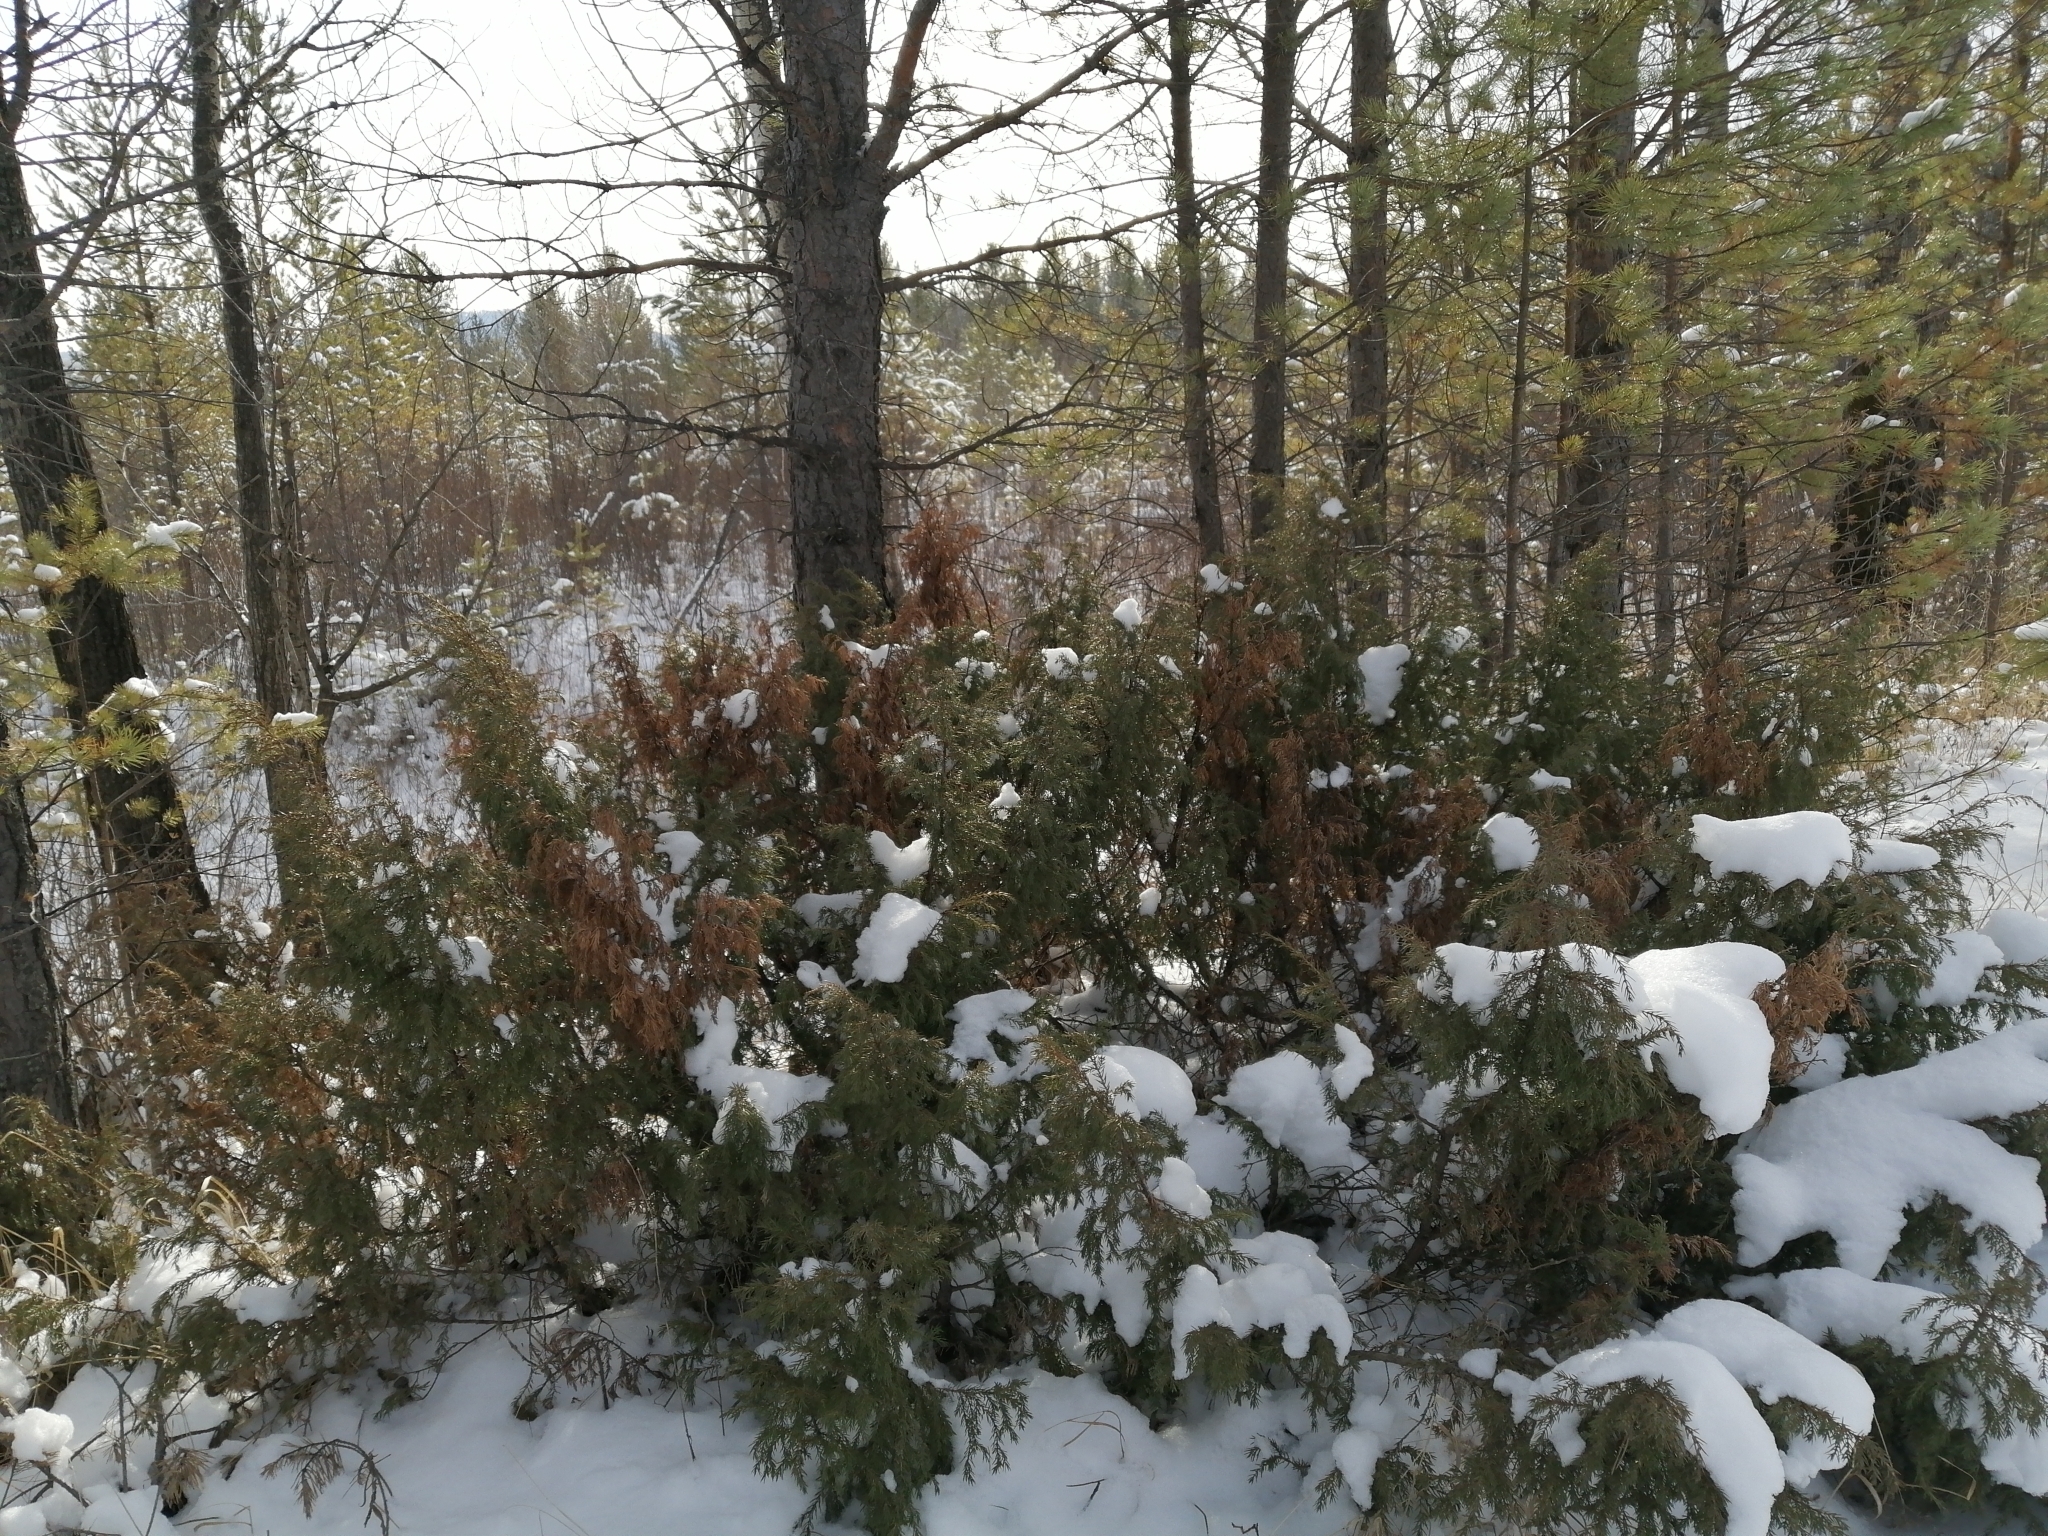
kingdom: Plantae
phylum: Tracheophyta
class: Pinopsida
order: Pinales
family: Cupressaceae
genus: Juniperus
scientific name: Juniperus communis
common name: Common juniper
